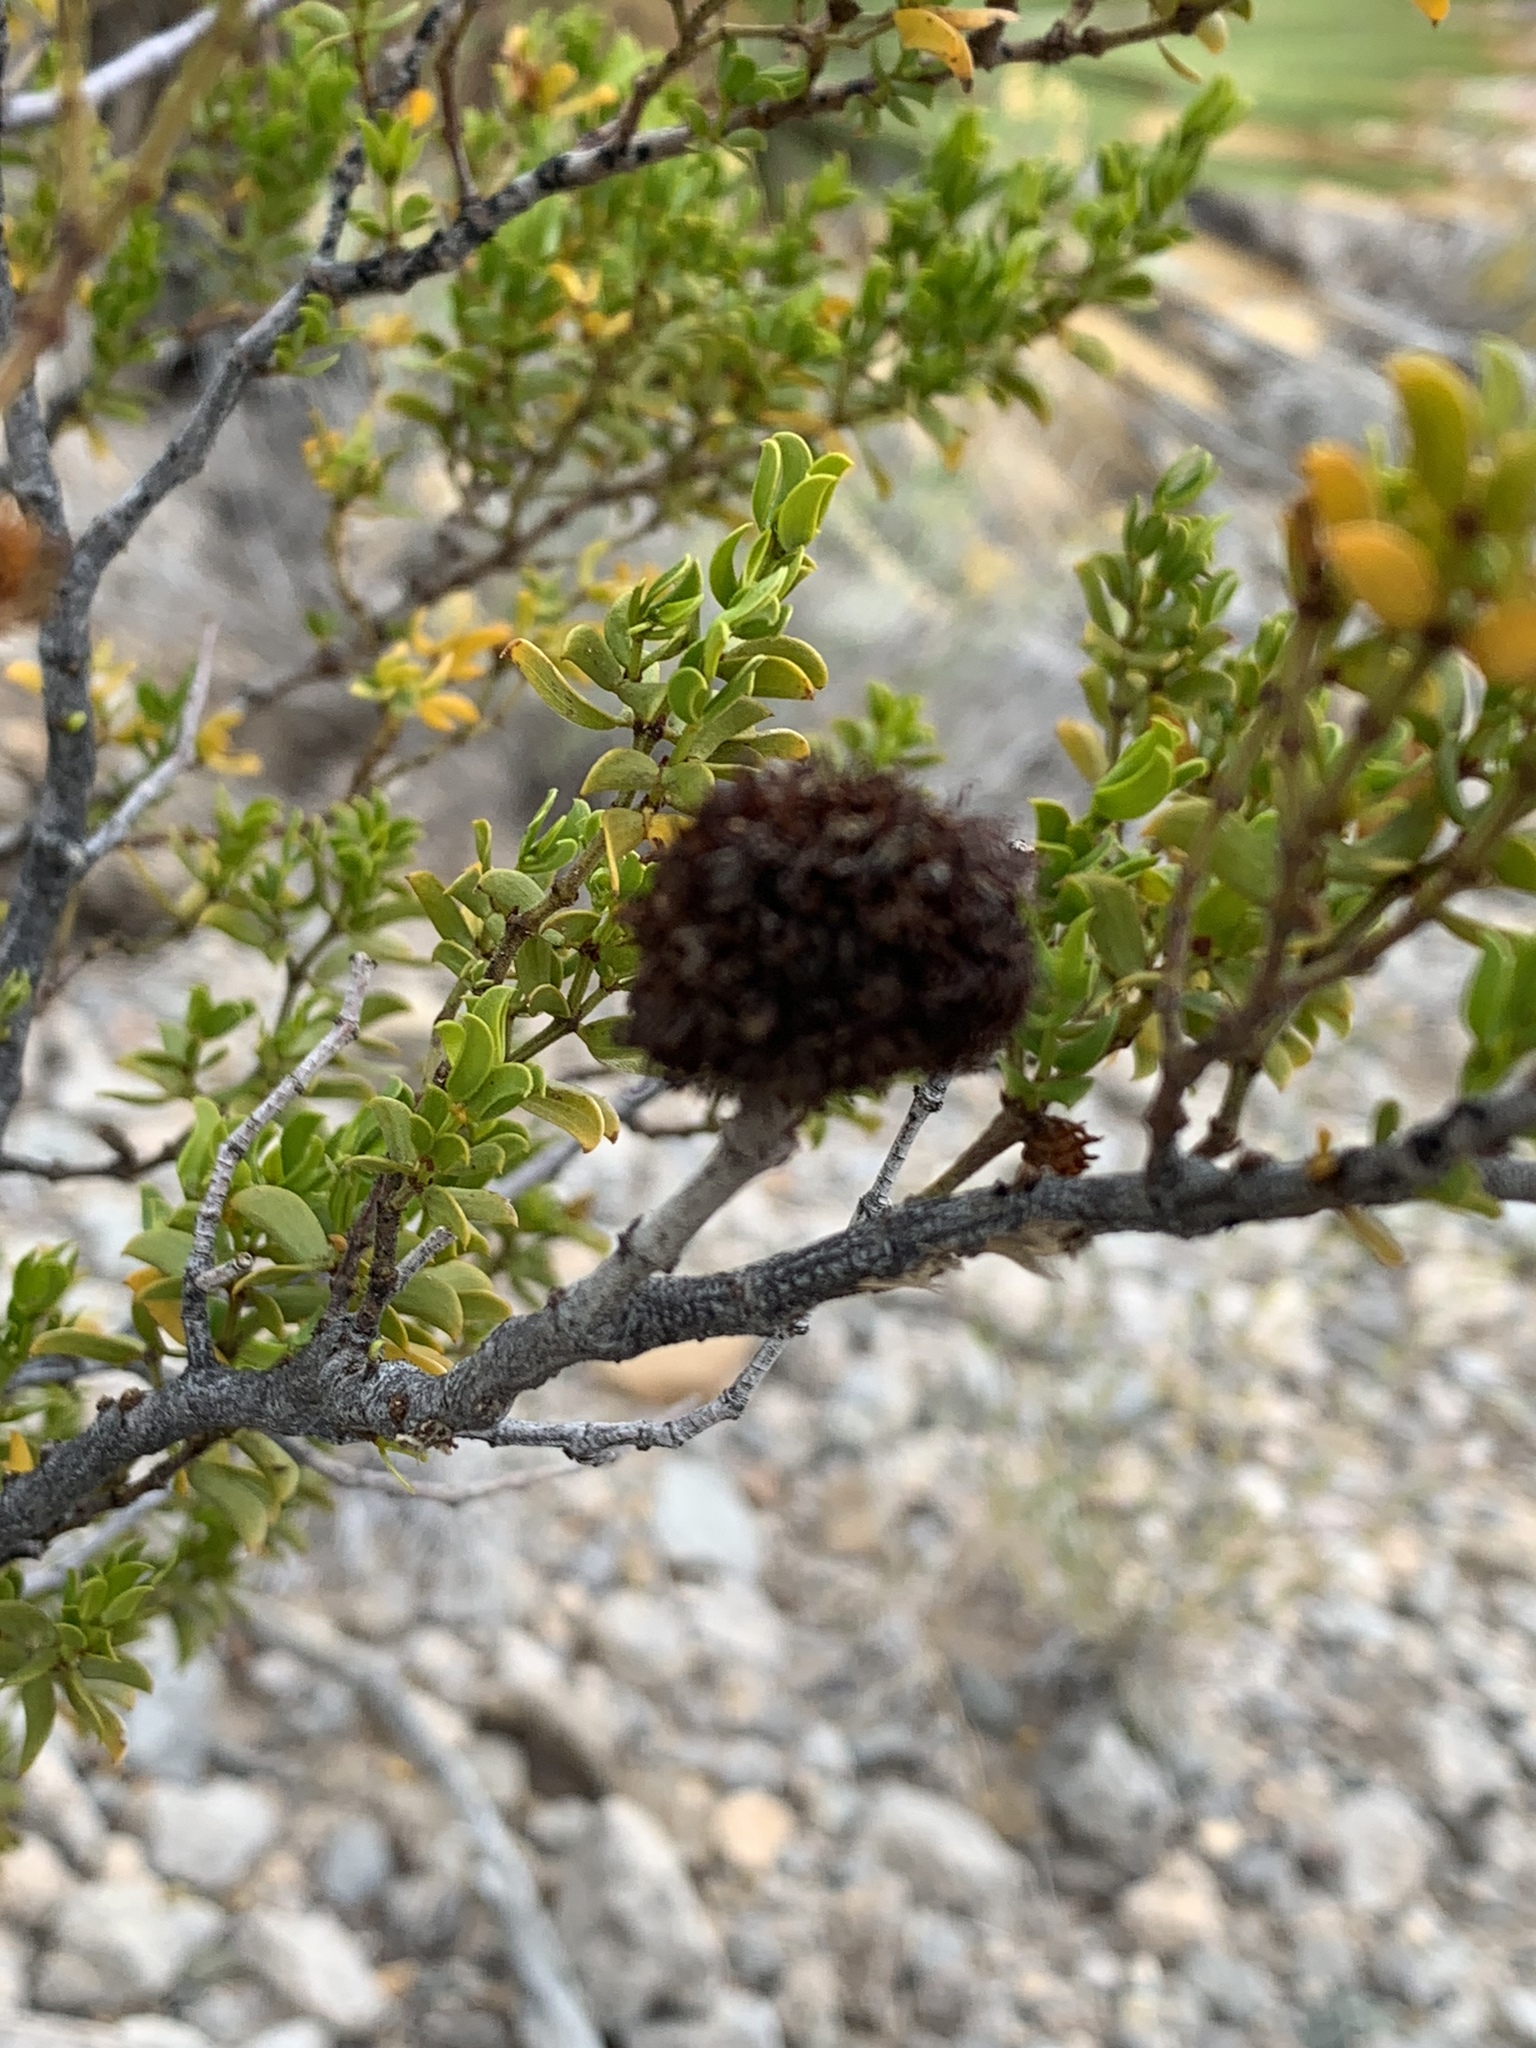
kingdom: Animalia
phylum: Arthropoda
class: Insecta
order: Diptera
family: Cecidomyiidae
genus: Asphondylia
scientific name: Asphondylia auripila
